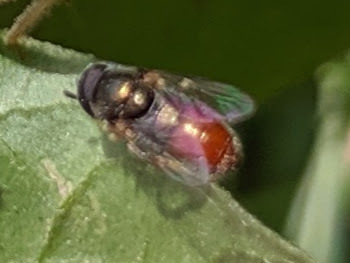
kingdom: Animalia
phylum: Arthropoda
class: Insecta
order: Diptera
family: Syrphidae
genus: Paragus
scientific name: Paragus haemorrhous
